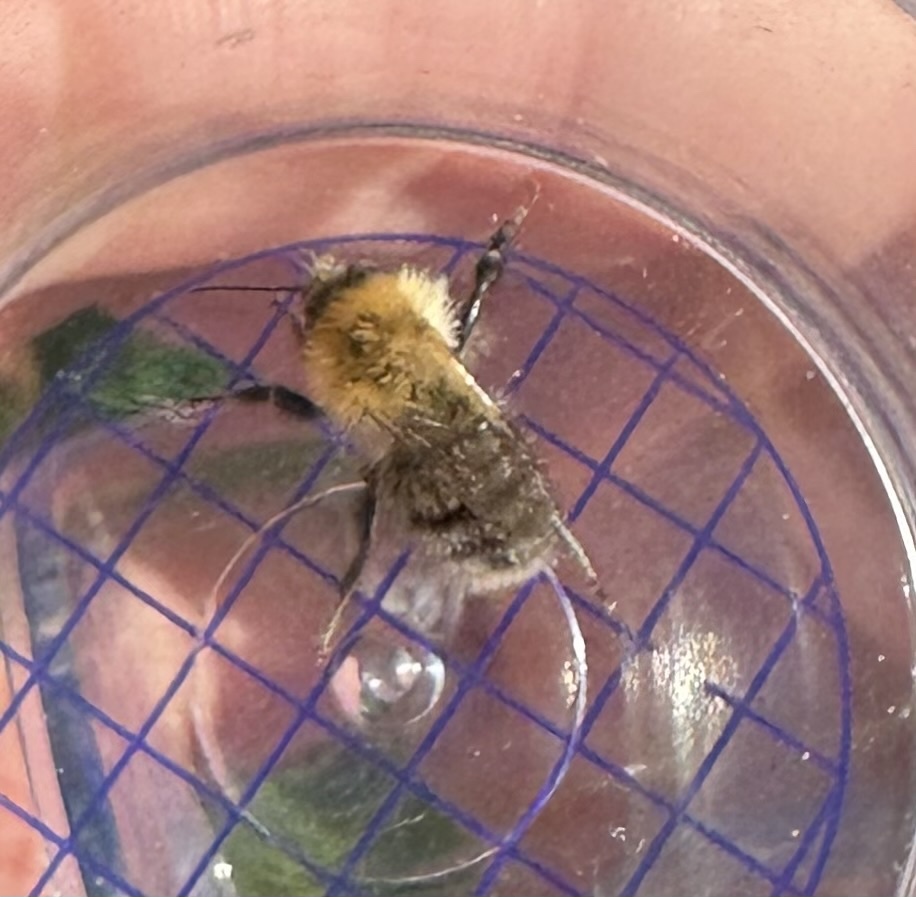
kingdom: Animalia
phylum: Arthropoda
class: Insecta
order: Hymenoptera
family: Apidae
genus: Bombus
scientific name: Bombus pascuorum
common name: Common carder bee
